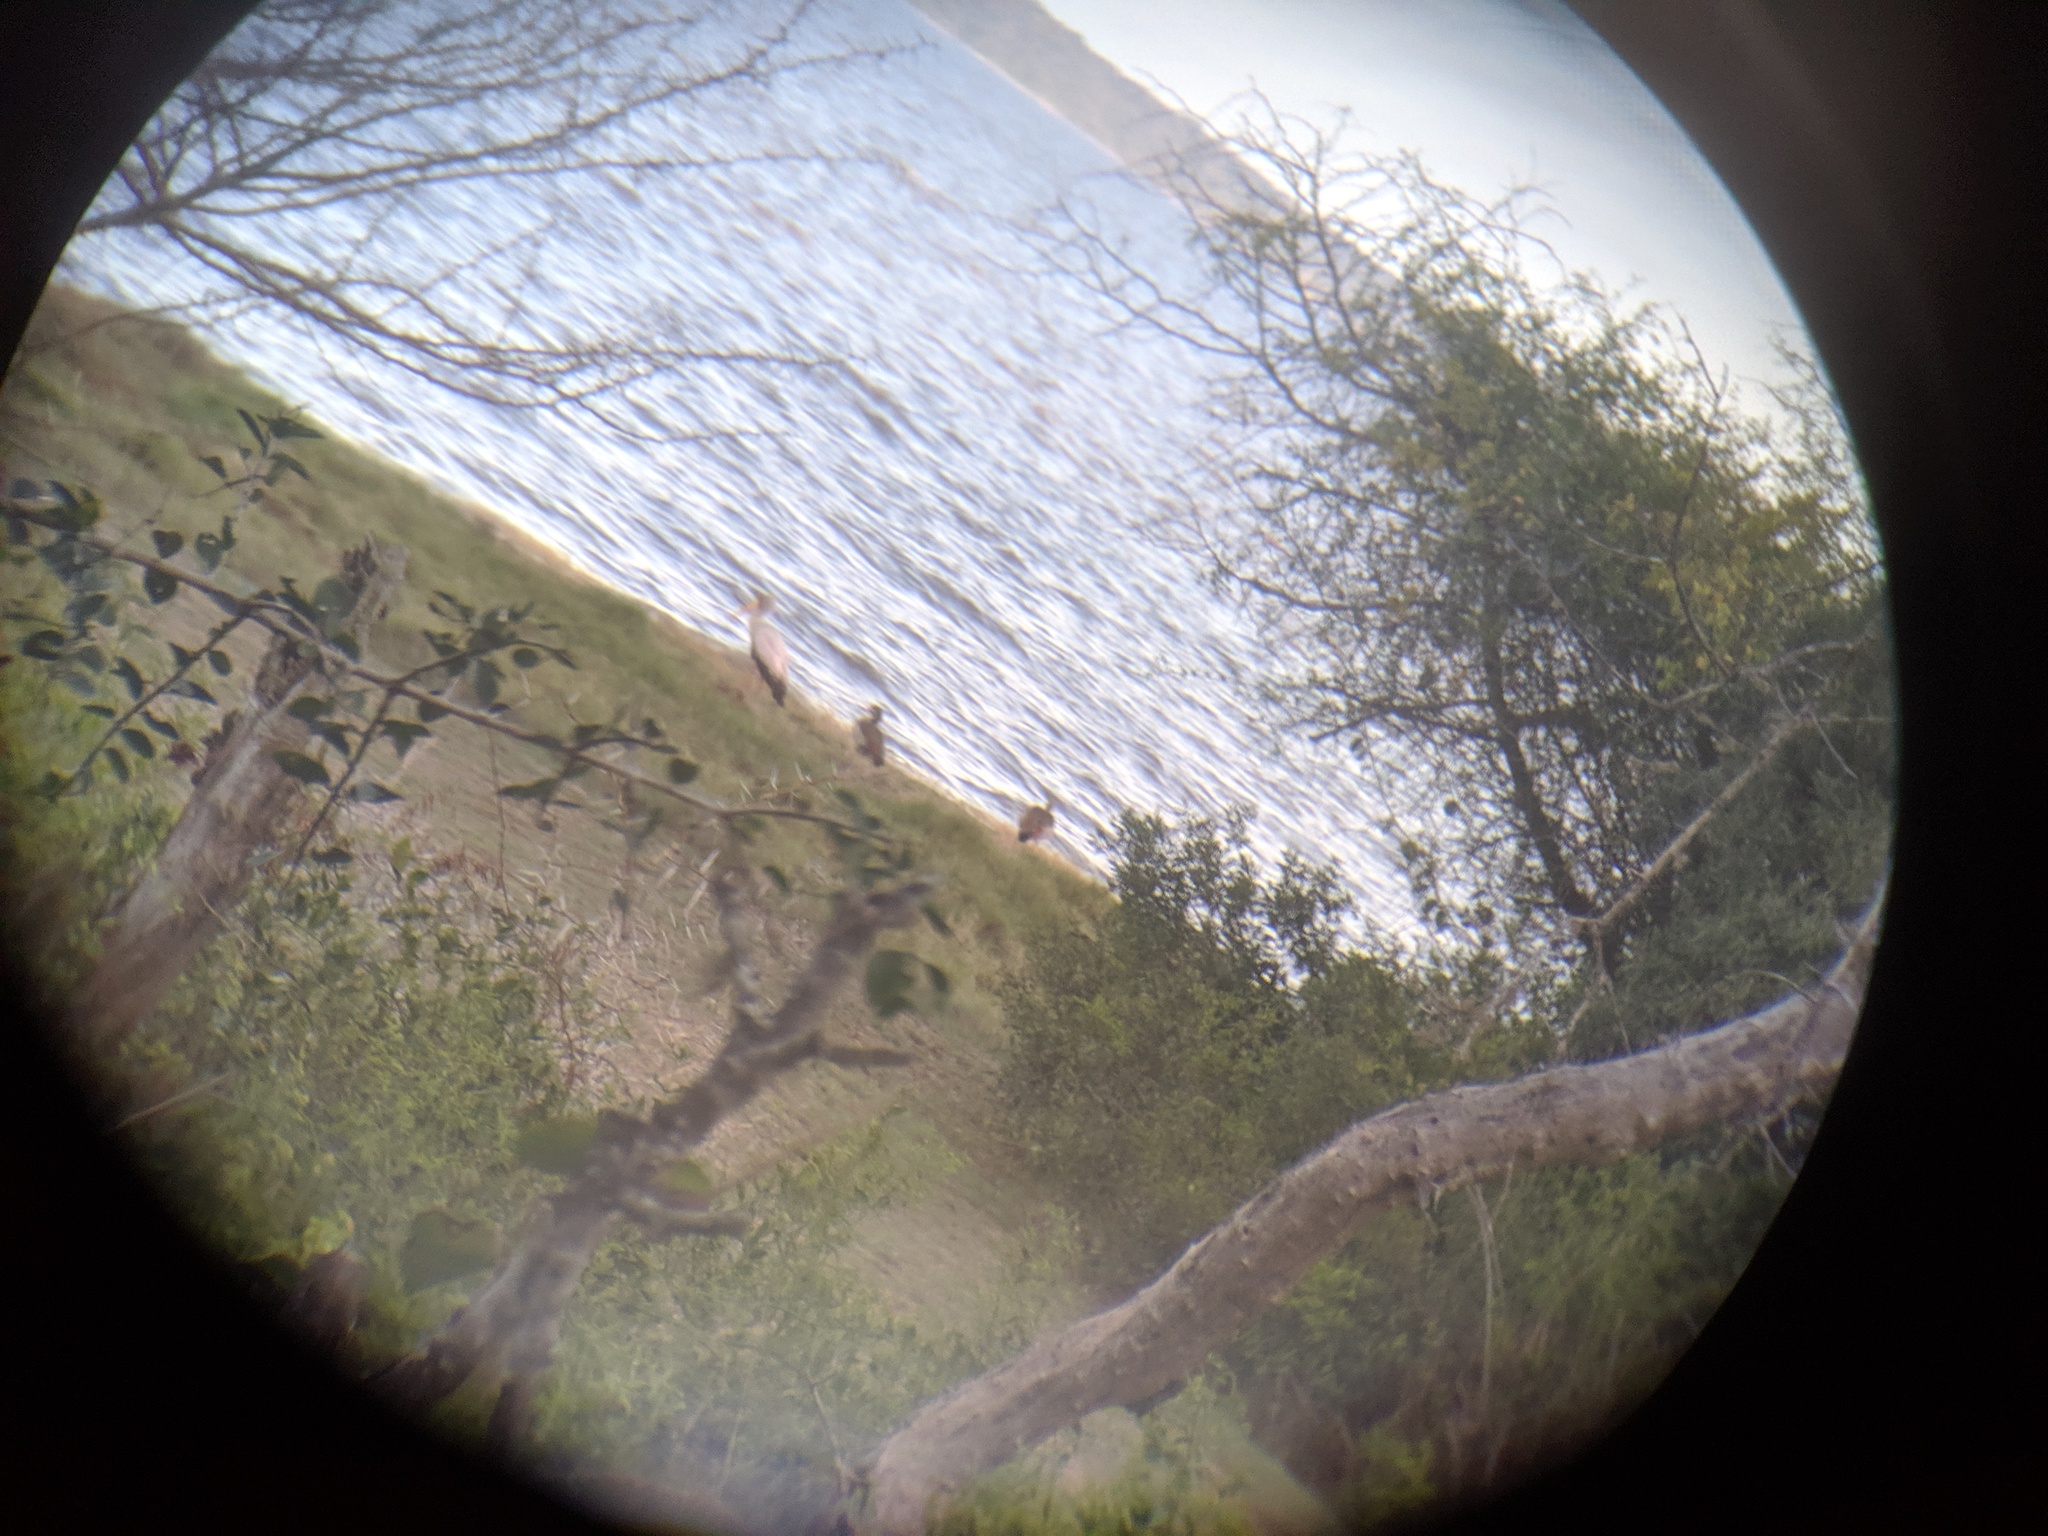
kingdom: Animalia
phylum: Chordata
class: Aves
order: Anseriformes
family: Anatidae
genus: Alopochen
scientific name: Alopochen aegyptiaca
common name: Egyptian goose
